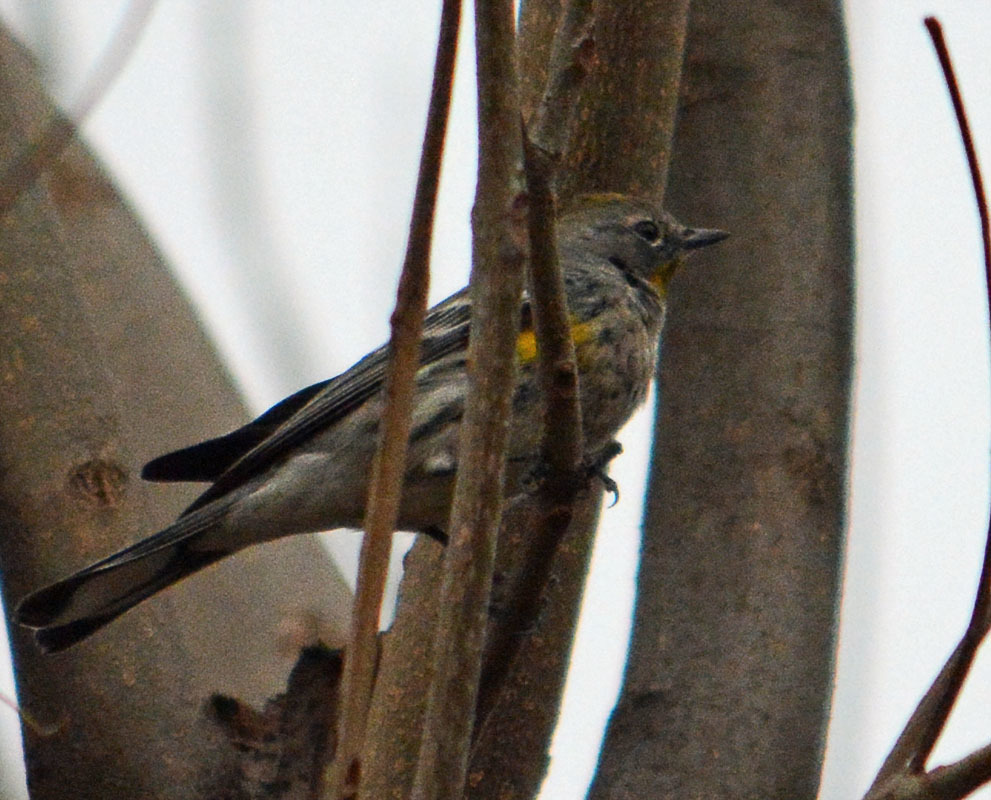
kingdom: Animalia
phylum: Chordata
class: Aves
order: Passeriformes
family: Parulidae
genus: Setophaga
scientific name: Setophaga auduboni
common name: Audubon's warbler
